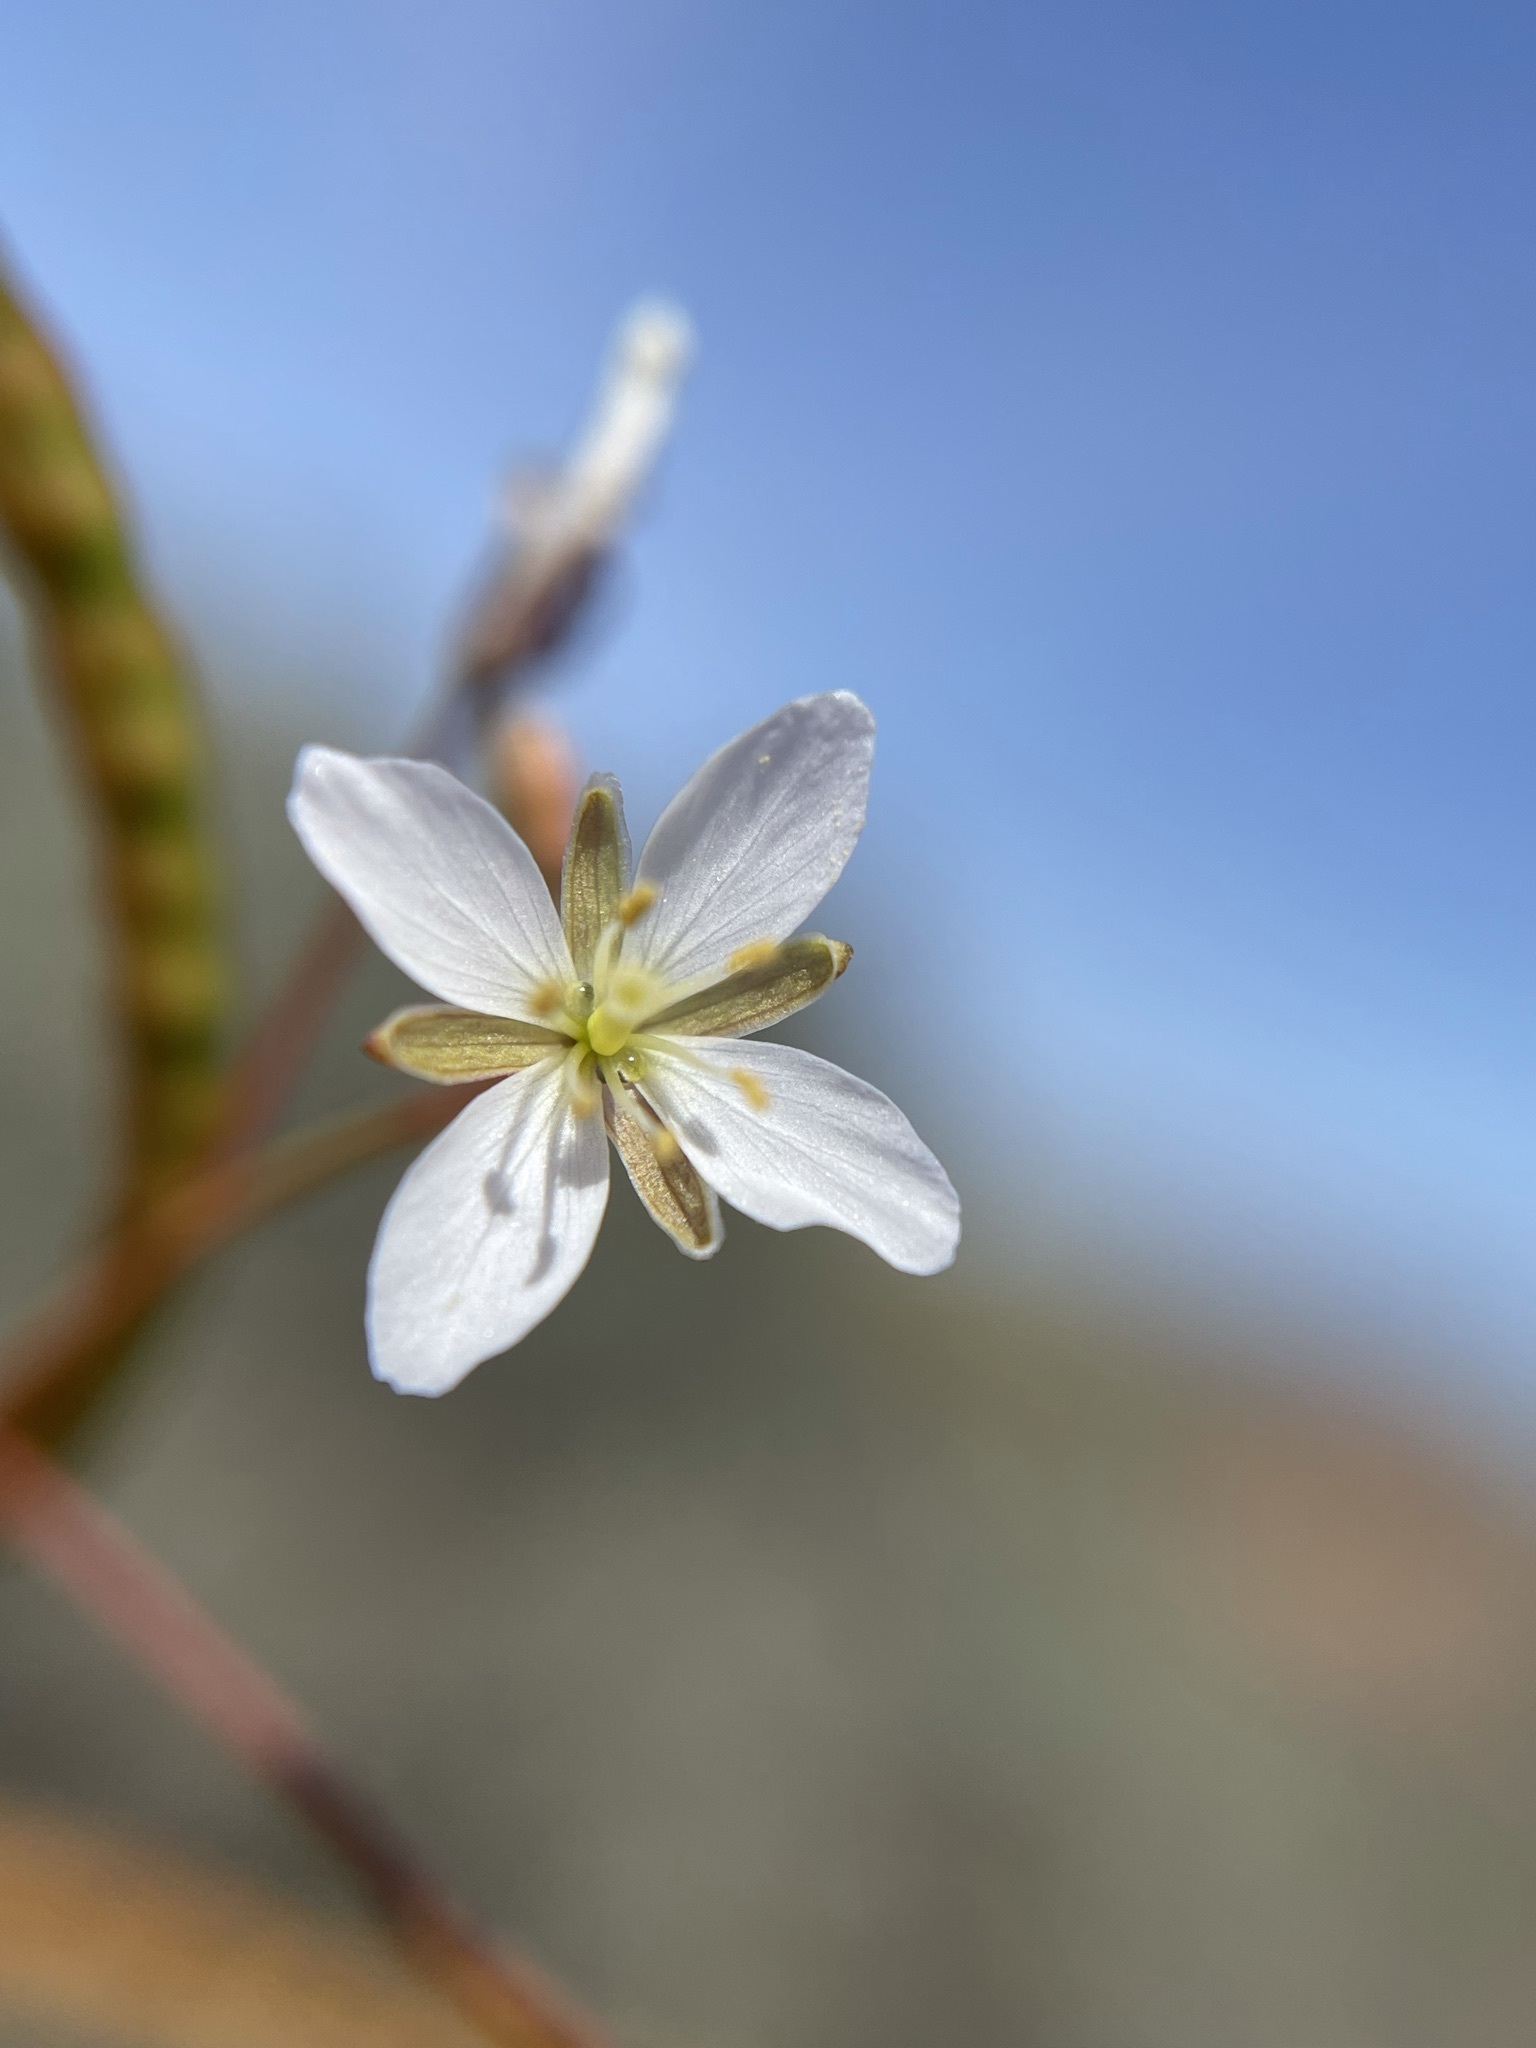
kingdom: Plantae
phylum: Tracheophyta
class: Magnoliopsida
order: Brassicales
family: Brassicaceae
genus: Heliophila
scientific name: Heliophila variabilis
